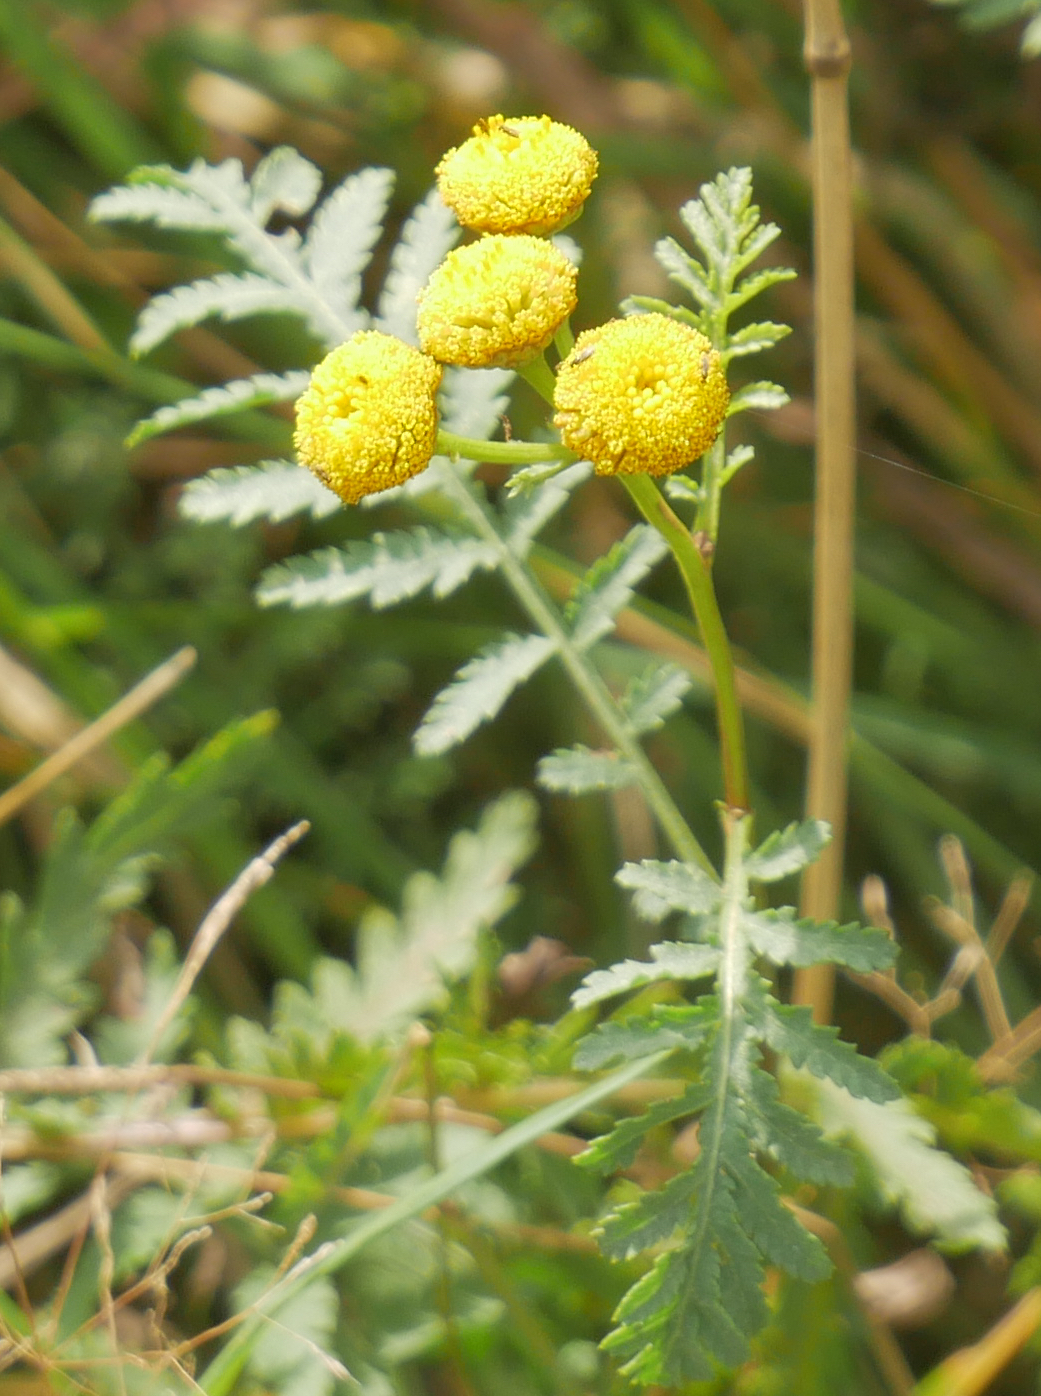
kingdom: Plantae
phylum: Tracheophyta
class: Magnoliopsida
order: Asterales
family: Asteraceae
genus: Tanacetum
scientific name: Tanacetum vulgare
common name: Common tansy
